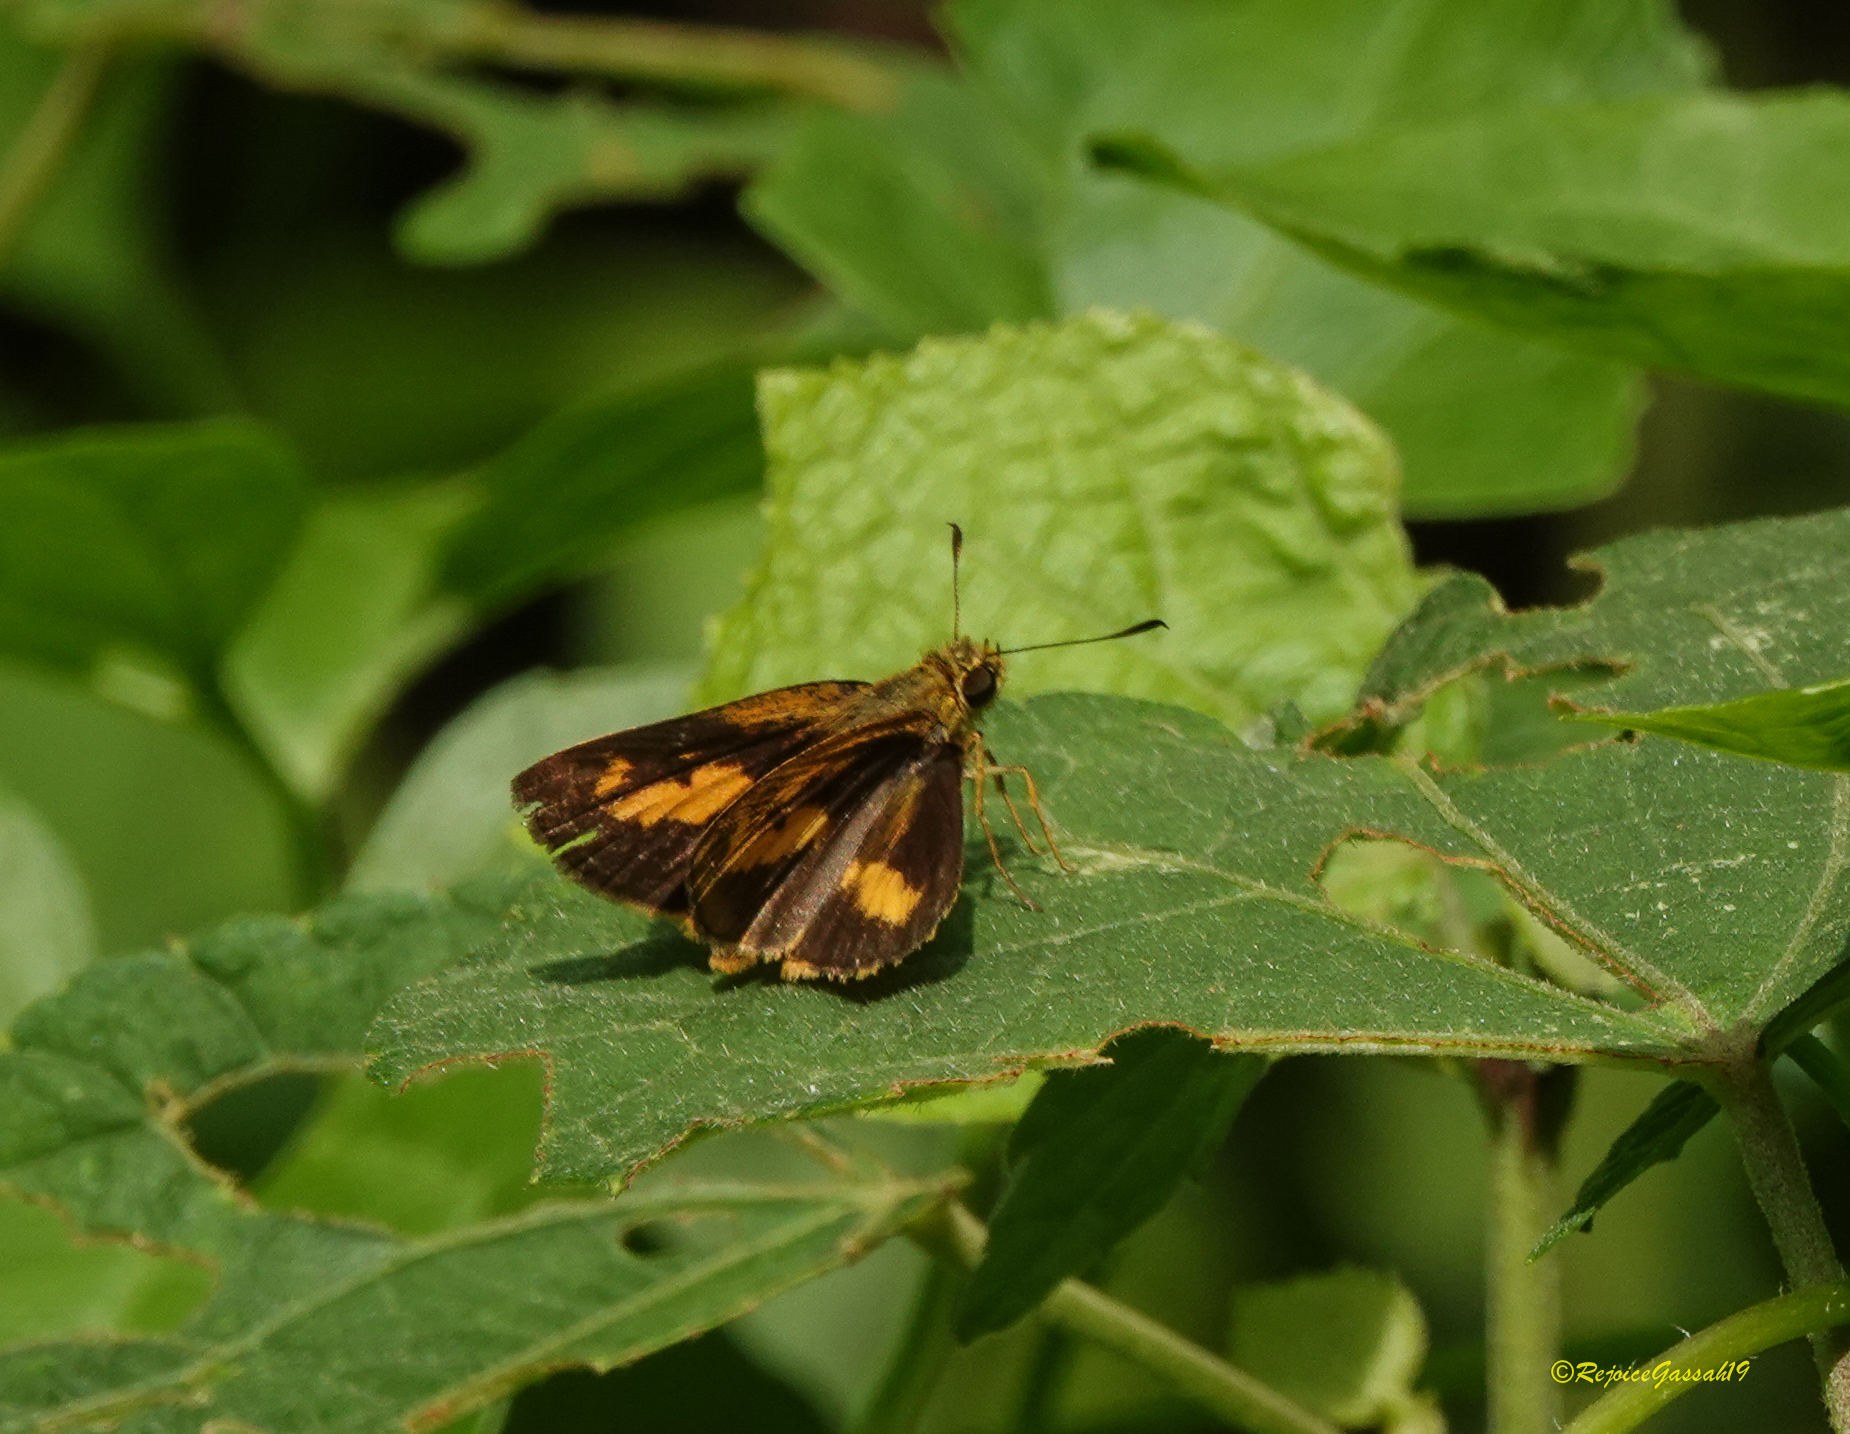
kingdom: Animalia
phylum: Arthropoda
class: Insecta
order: Lepidoptera
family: Hesperiidae
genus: Oriens
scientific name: Oriens gola
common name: Common dartlet
